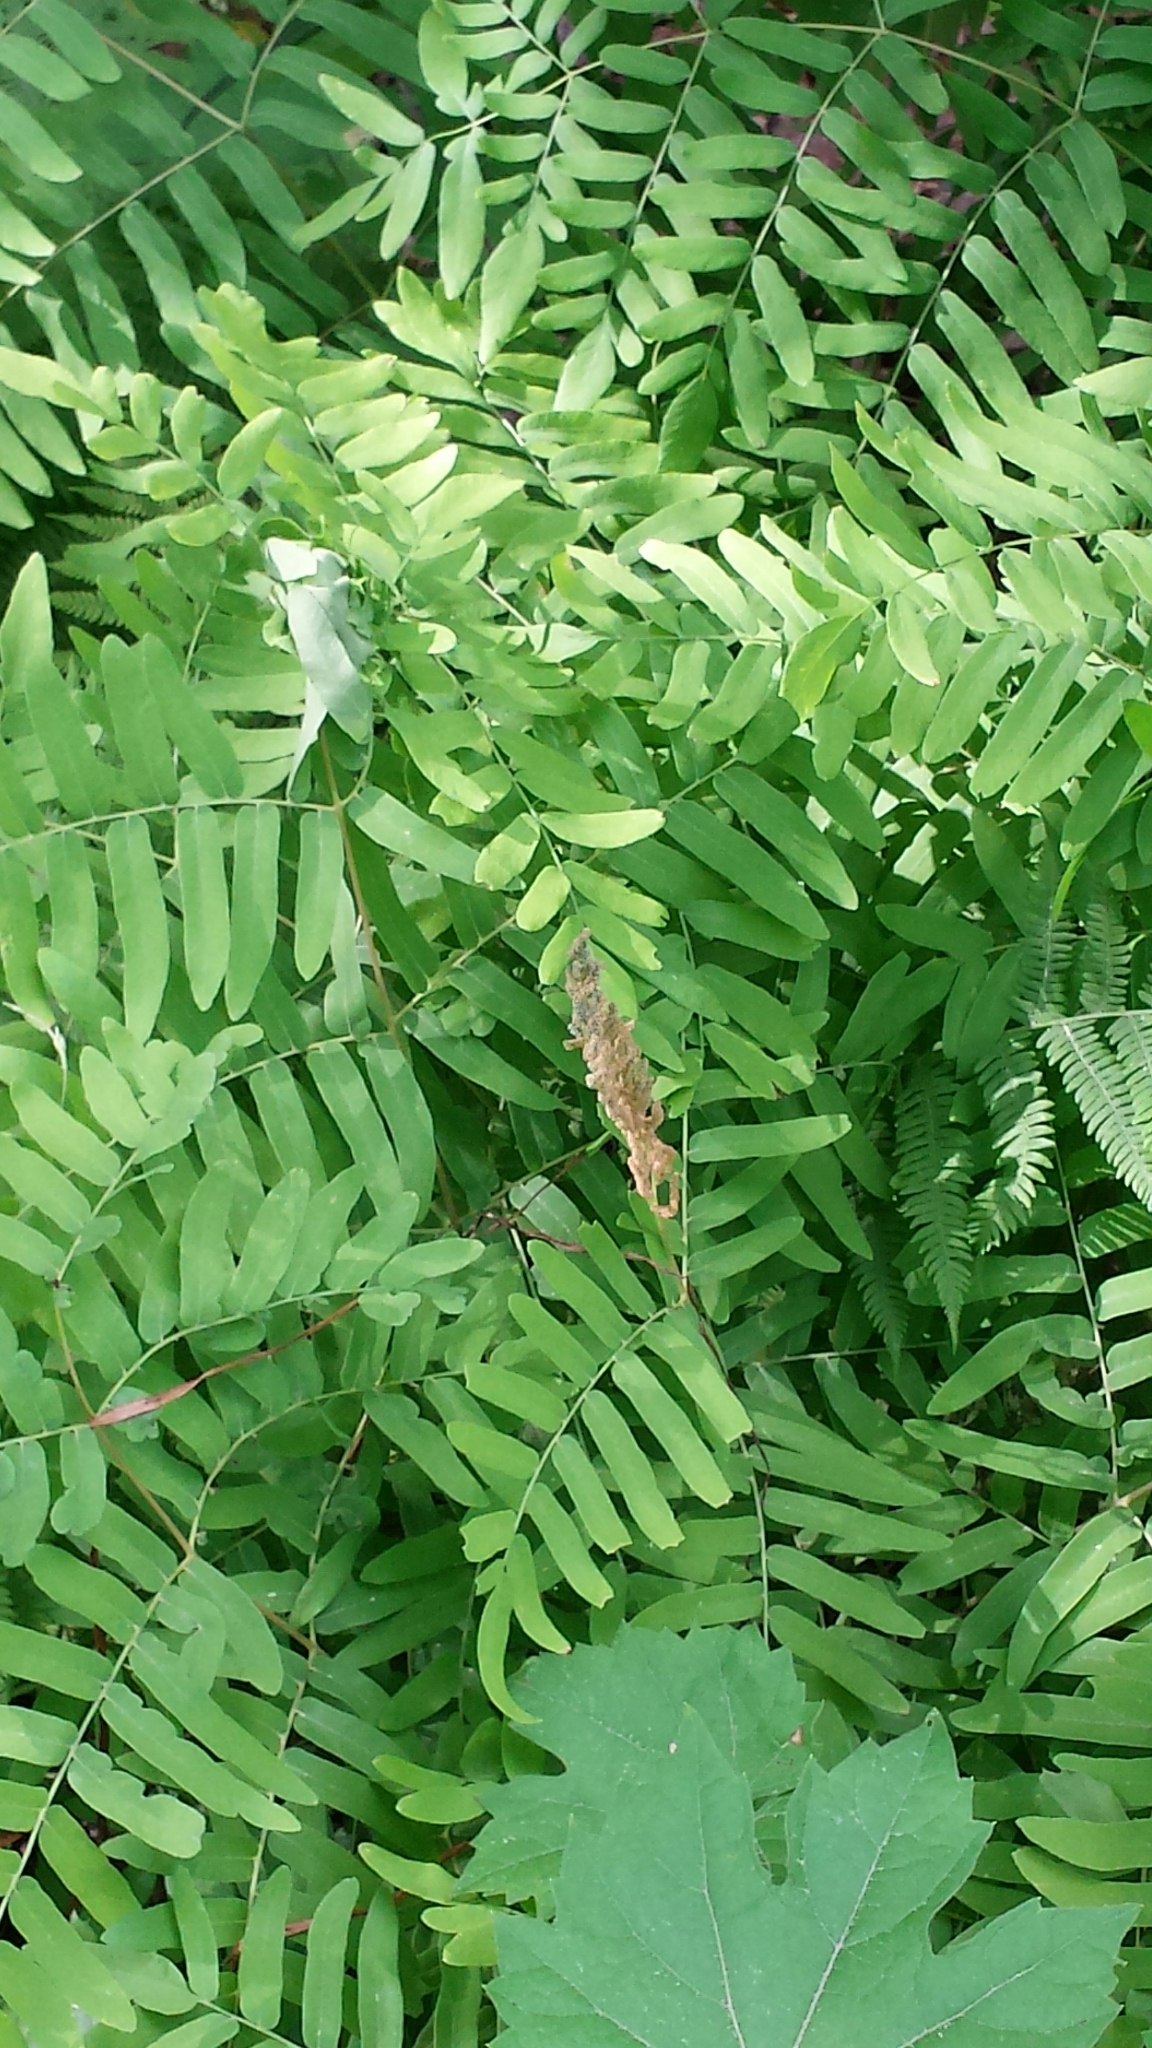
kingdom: Plantae
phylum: Tracheophyta
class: Polypodiopsida
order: Osmundales
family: Osmundaceae
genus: Osmunda
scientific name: Osmunda spectabilis
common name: American royal fern
